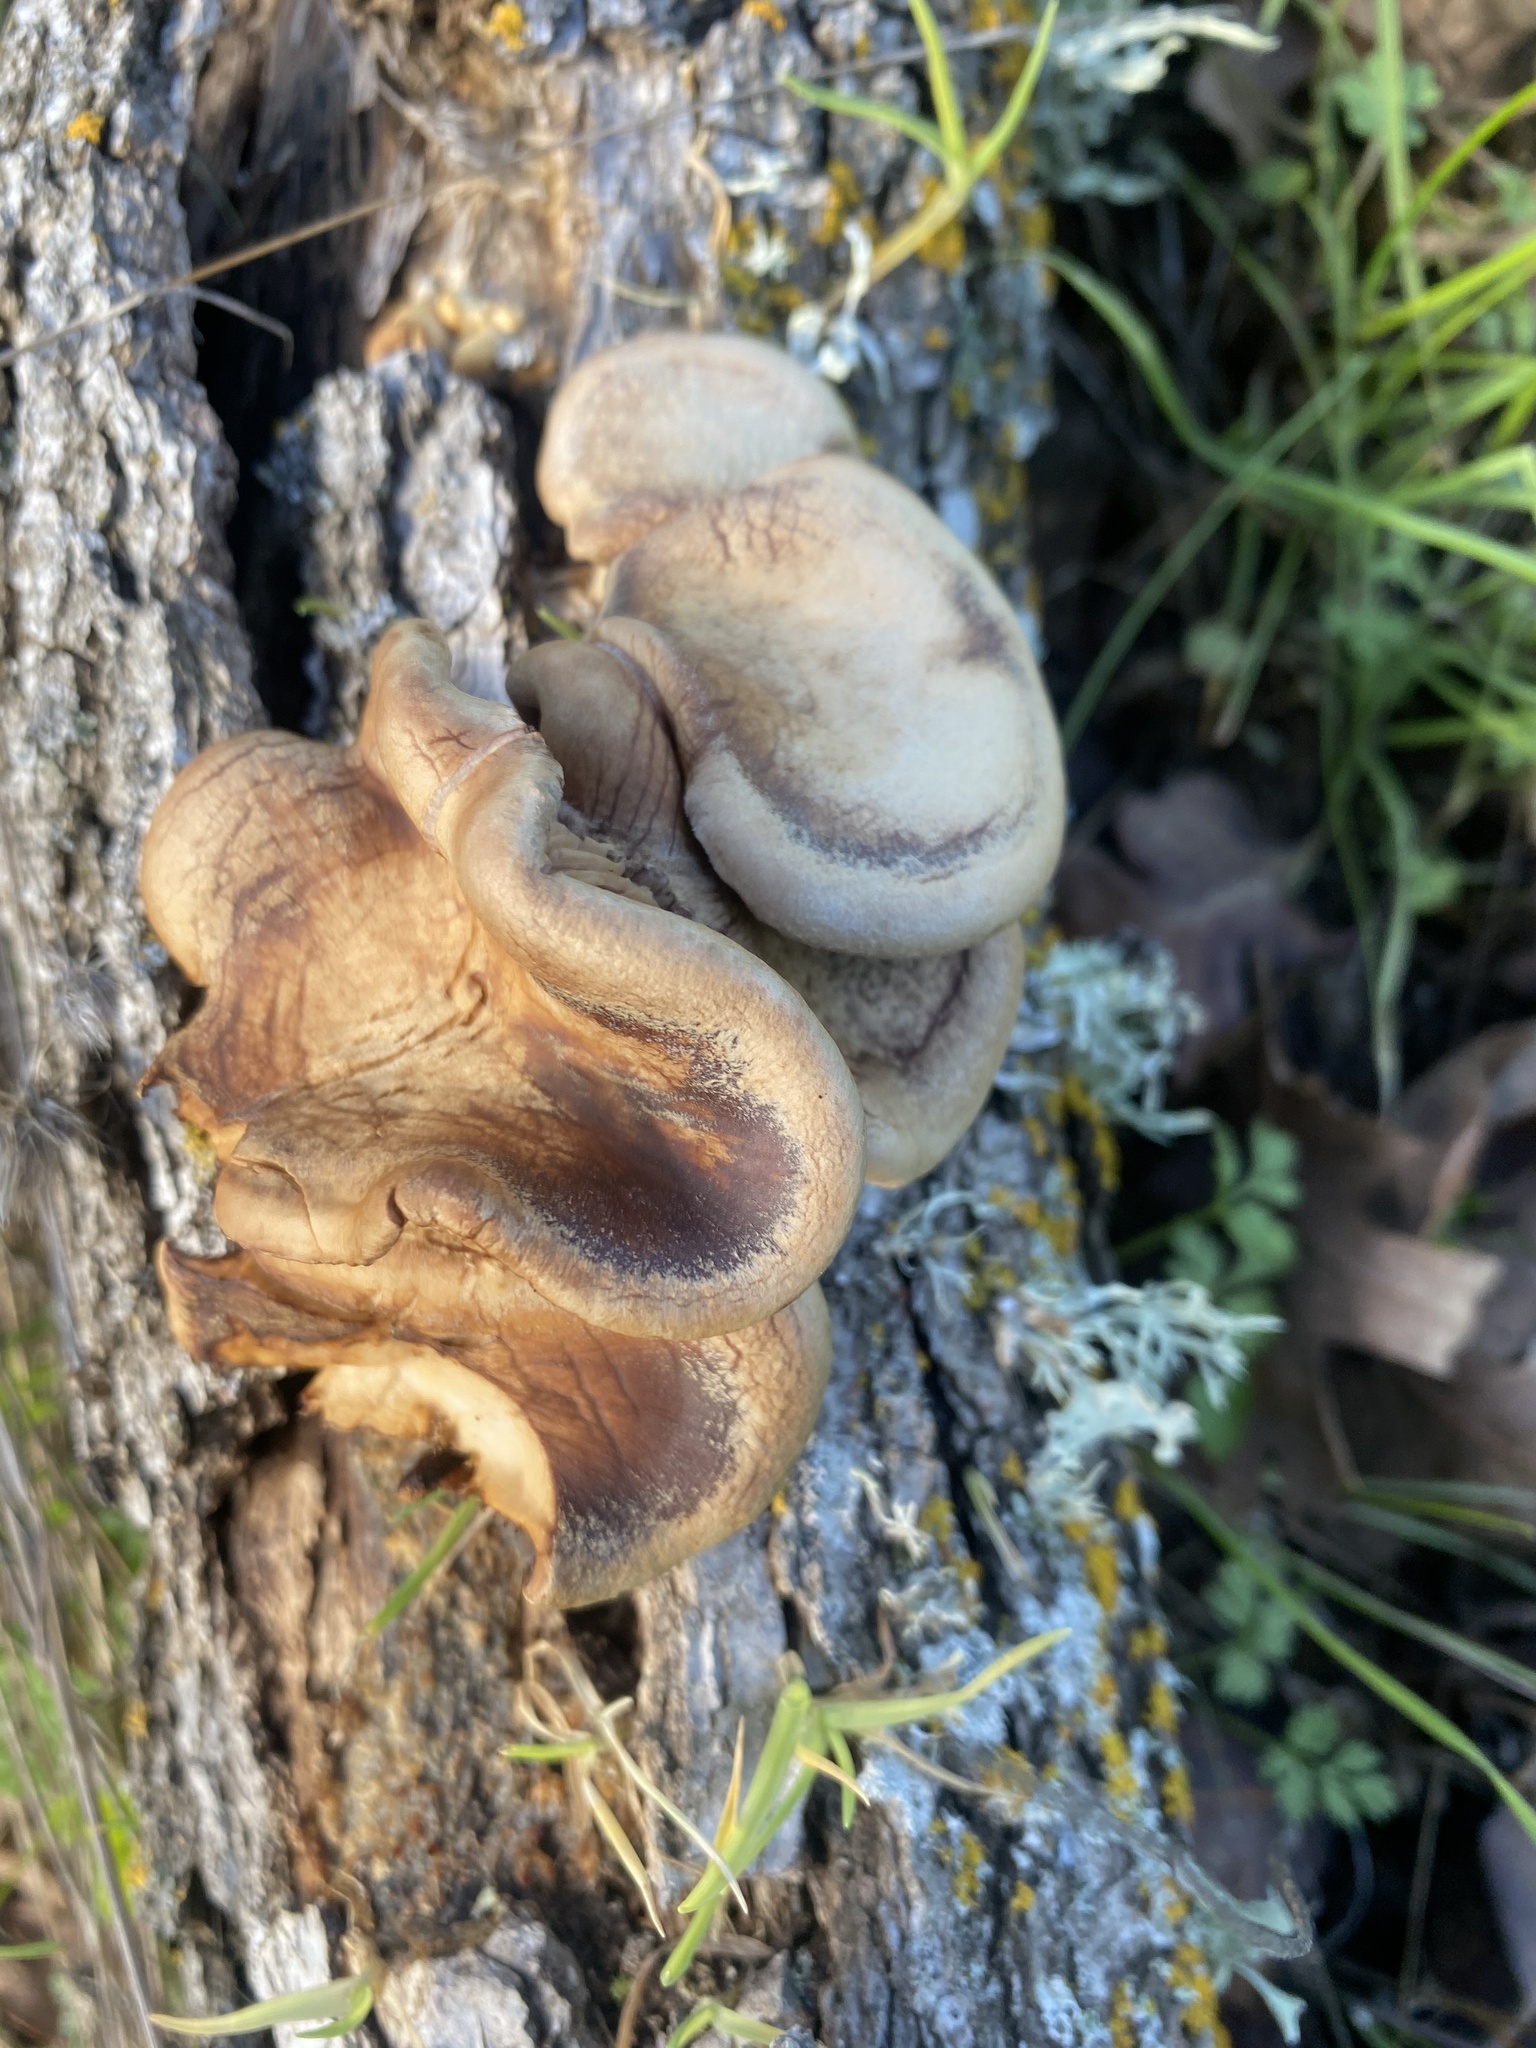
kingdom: Fungi
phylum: Basidiomycota
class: Agaricomycetes
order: Polyporales
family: Panaceae
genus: Panus
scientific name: Panus conchatus
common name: Lilac oysterling
